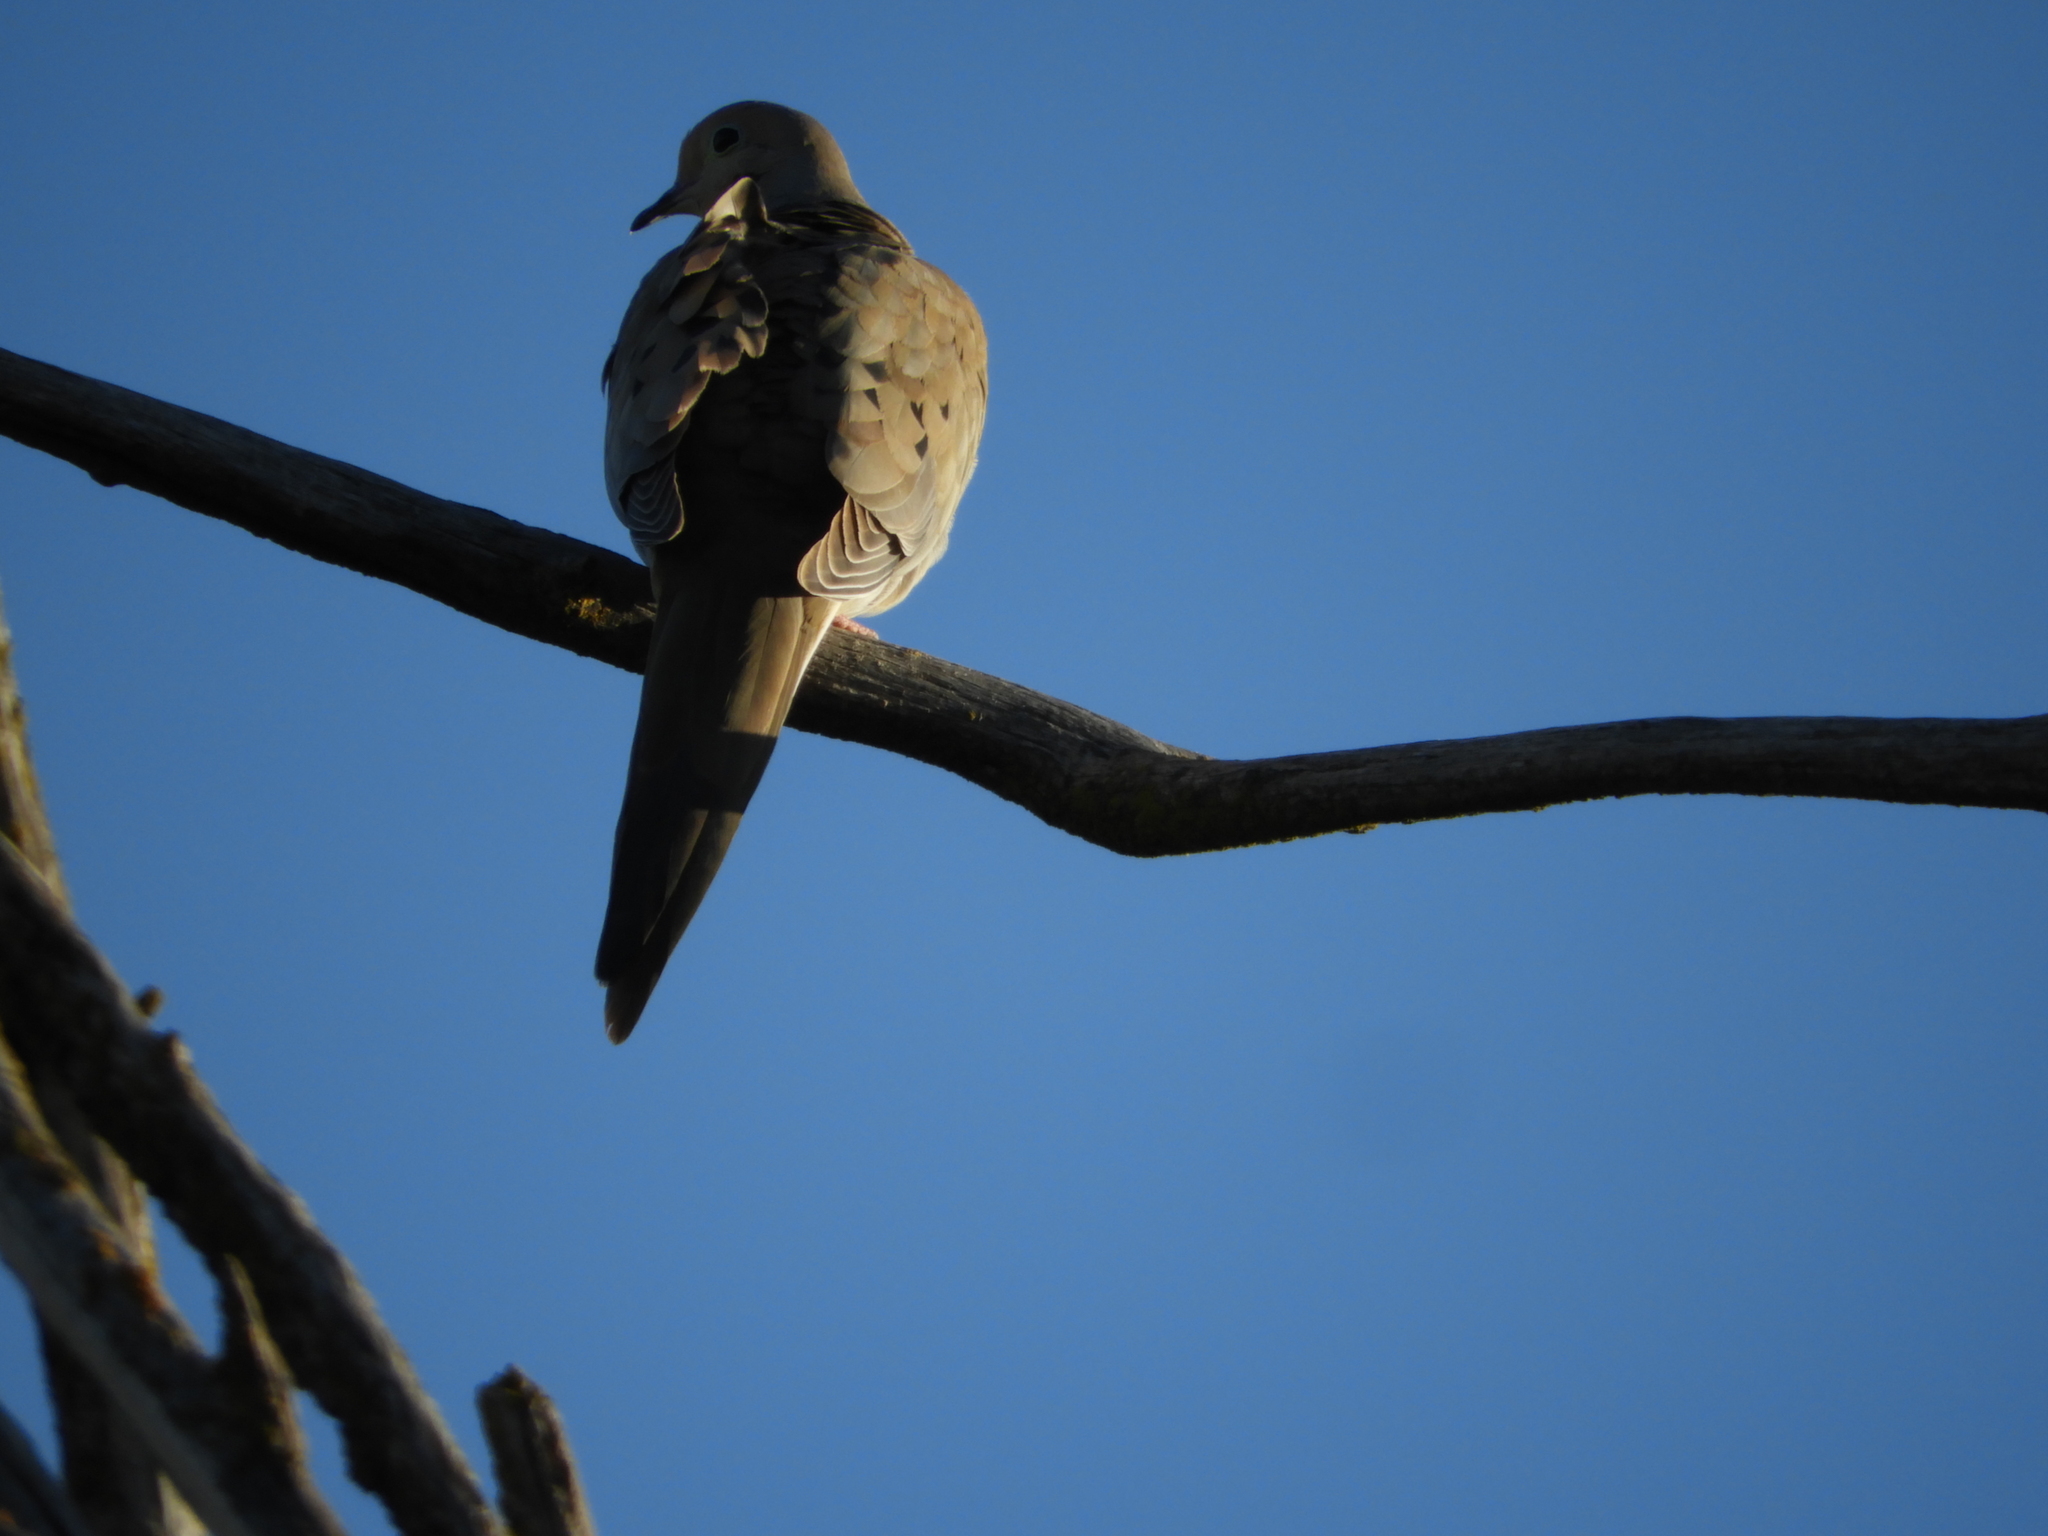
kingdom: Animalia
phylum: Chordata
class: Aves
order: Columbiformes
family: Columbidae
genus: Zenaida
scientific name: Zenaida macroura
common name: Mourning dove
